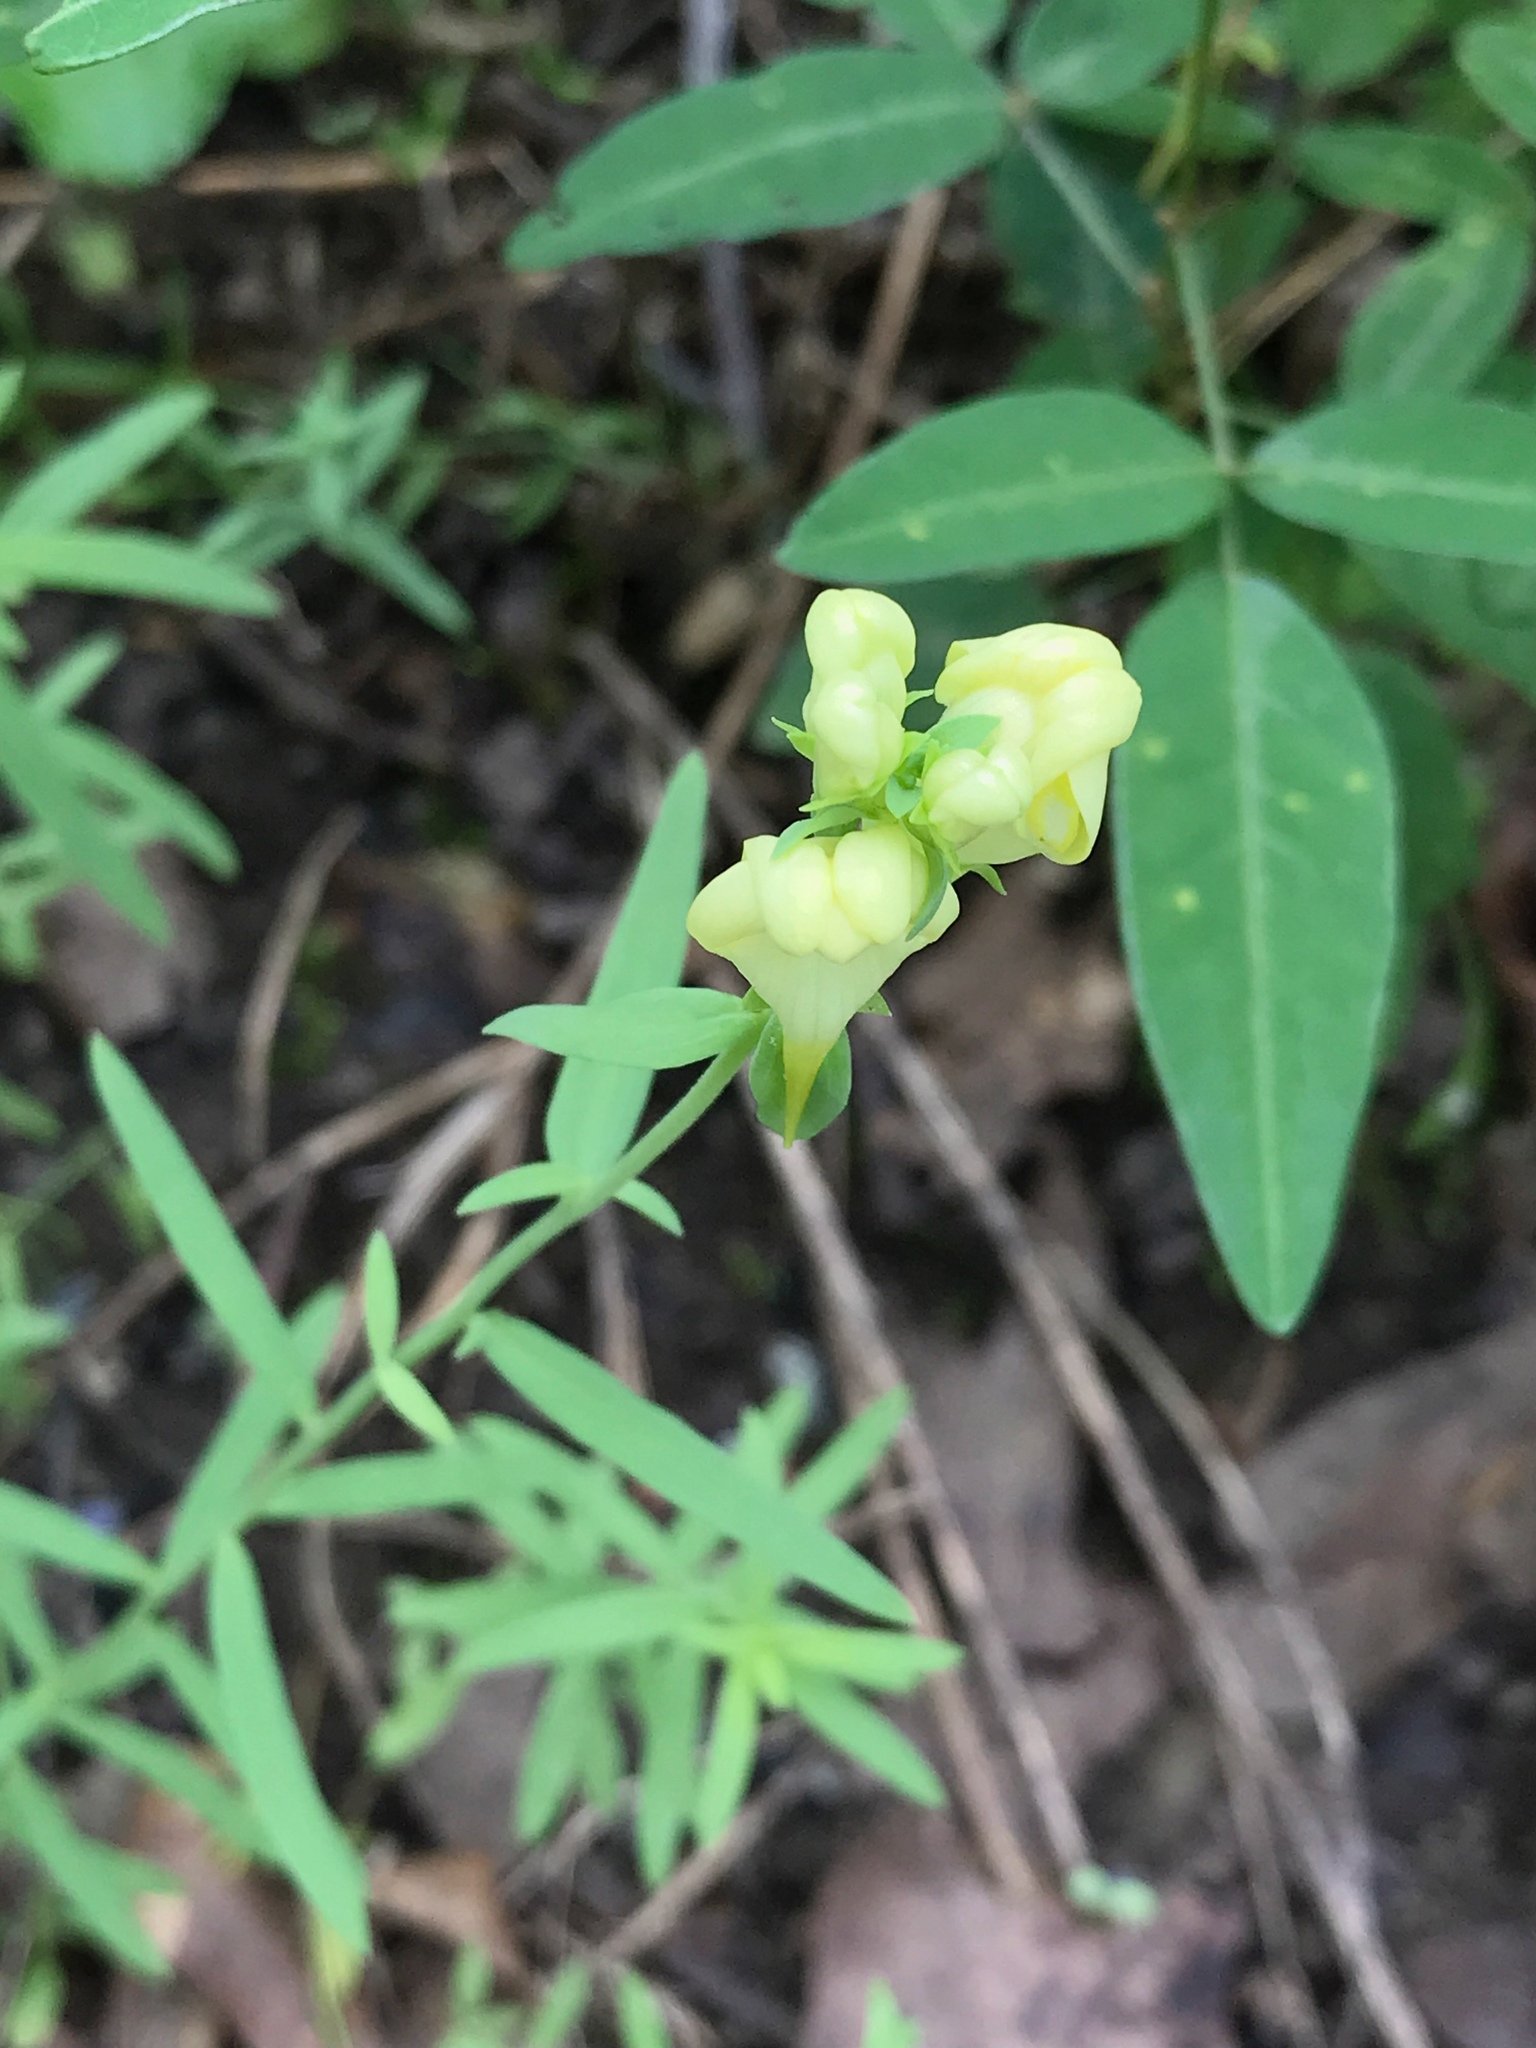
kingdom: Plantae
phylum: Tracheophyta
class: Magnoliopsida
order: Lamiales
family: Plantaginaceae
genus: Linaria
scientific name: Linaria vulgaris
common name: Butter and eggs
